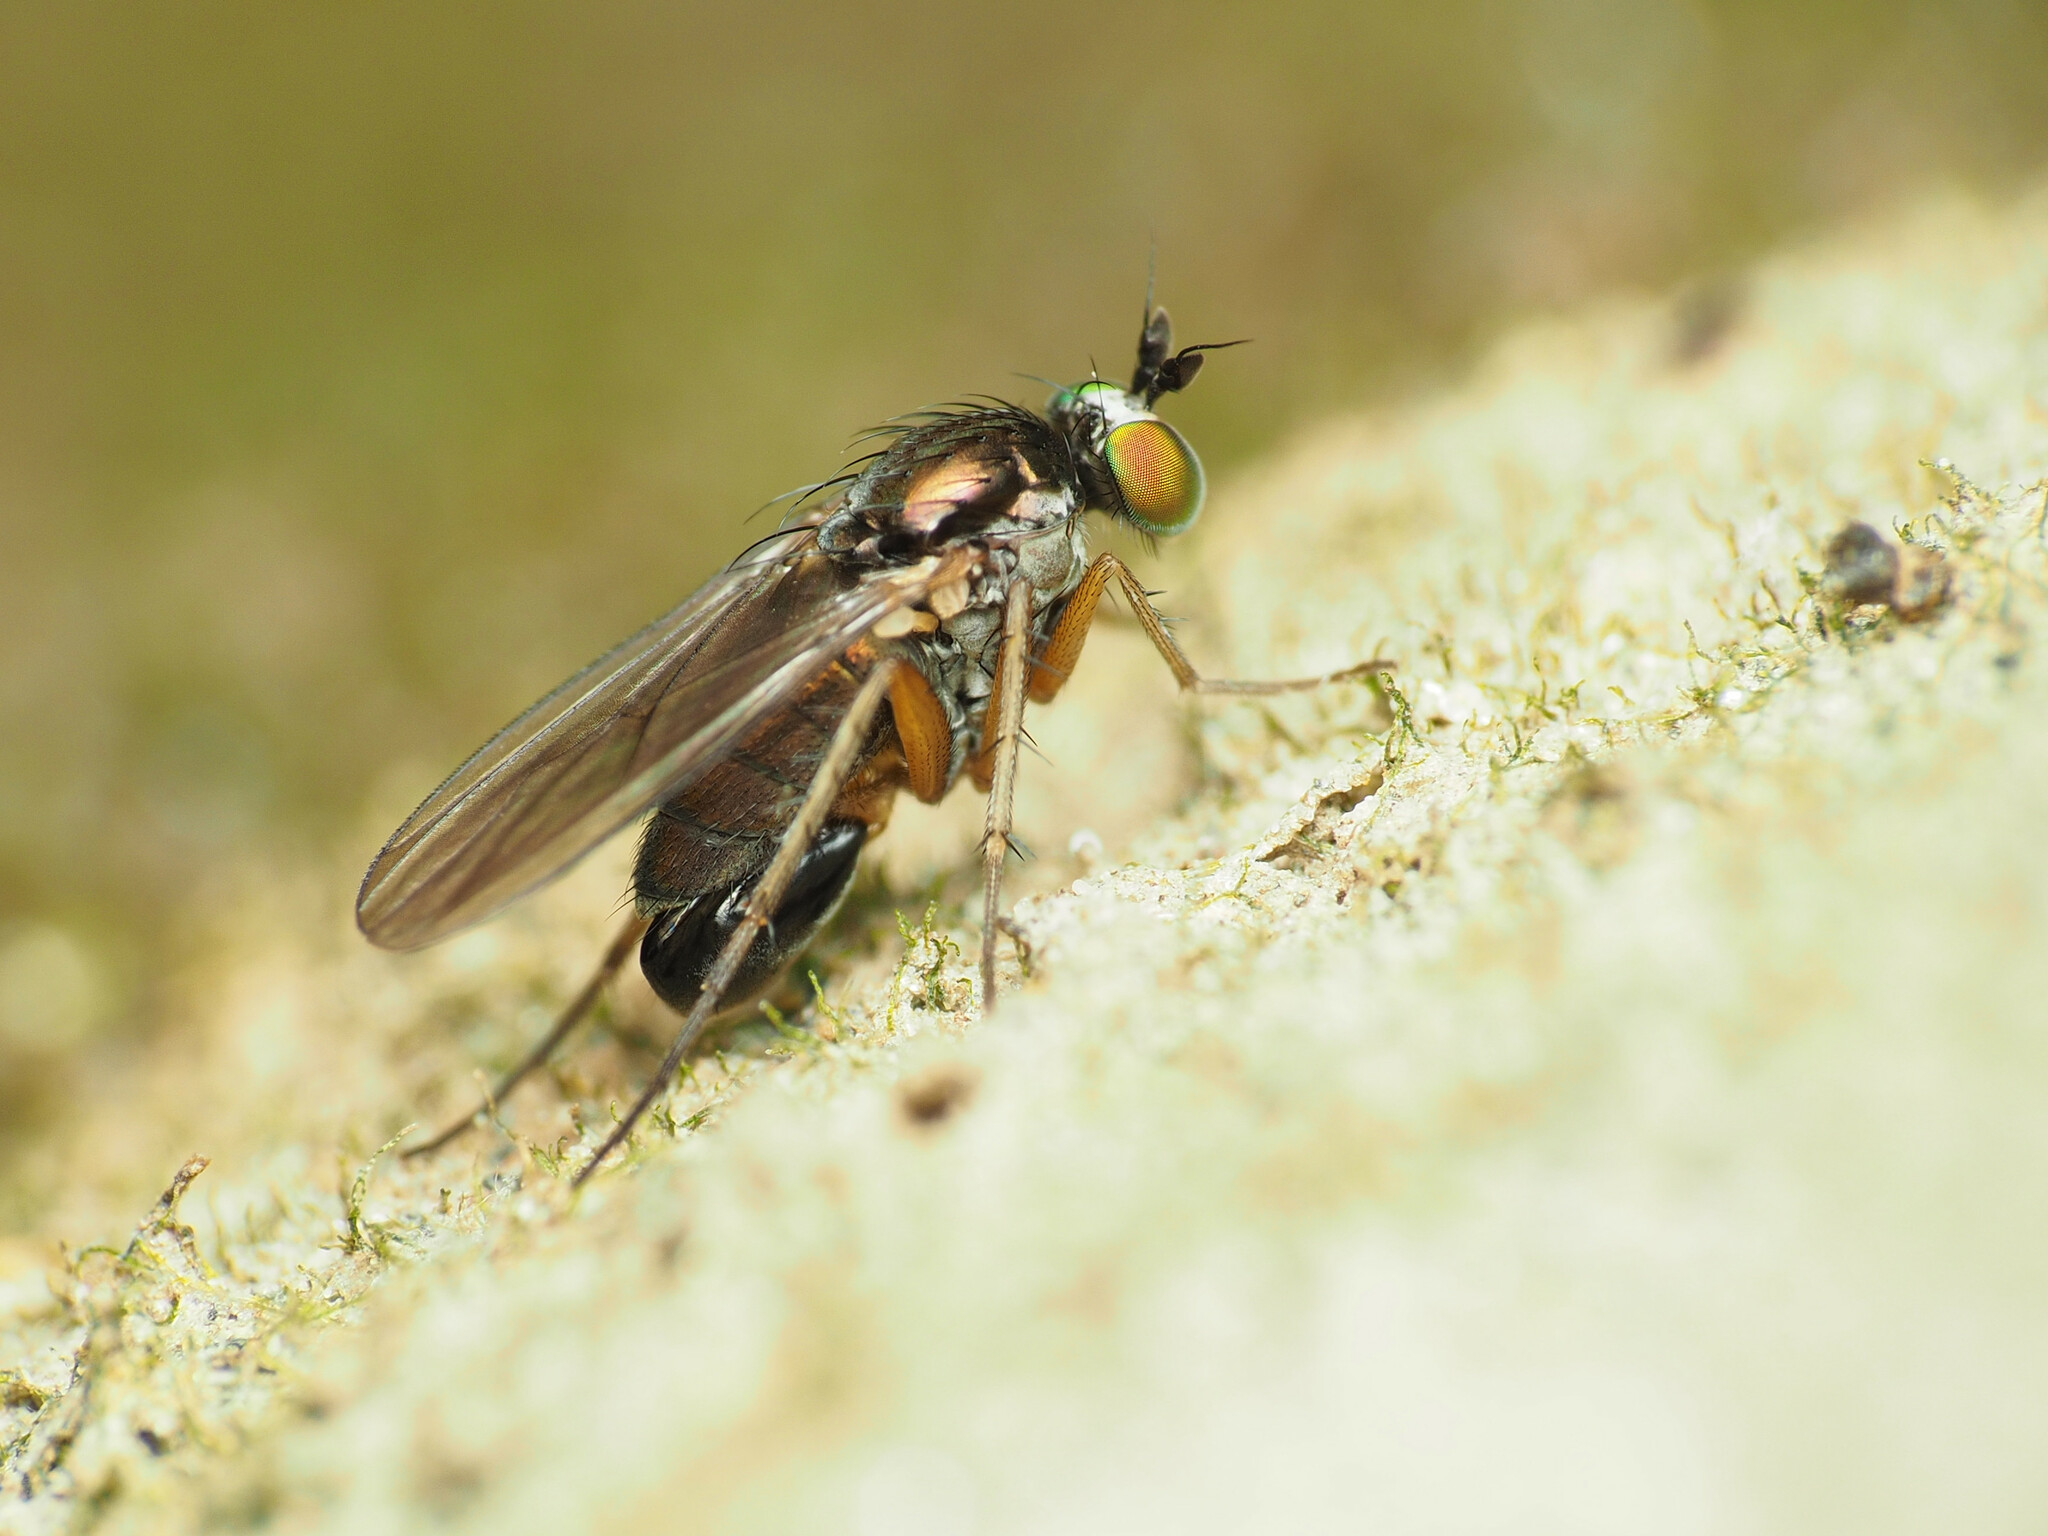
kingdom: Animalia
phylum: Arthropoda
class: Insecta
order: Diptera
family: Dolichopodidae
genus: Gymnopternus
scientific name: Gymnopternus meniscus
